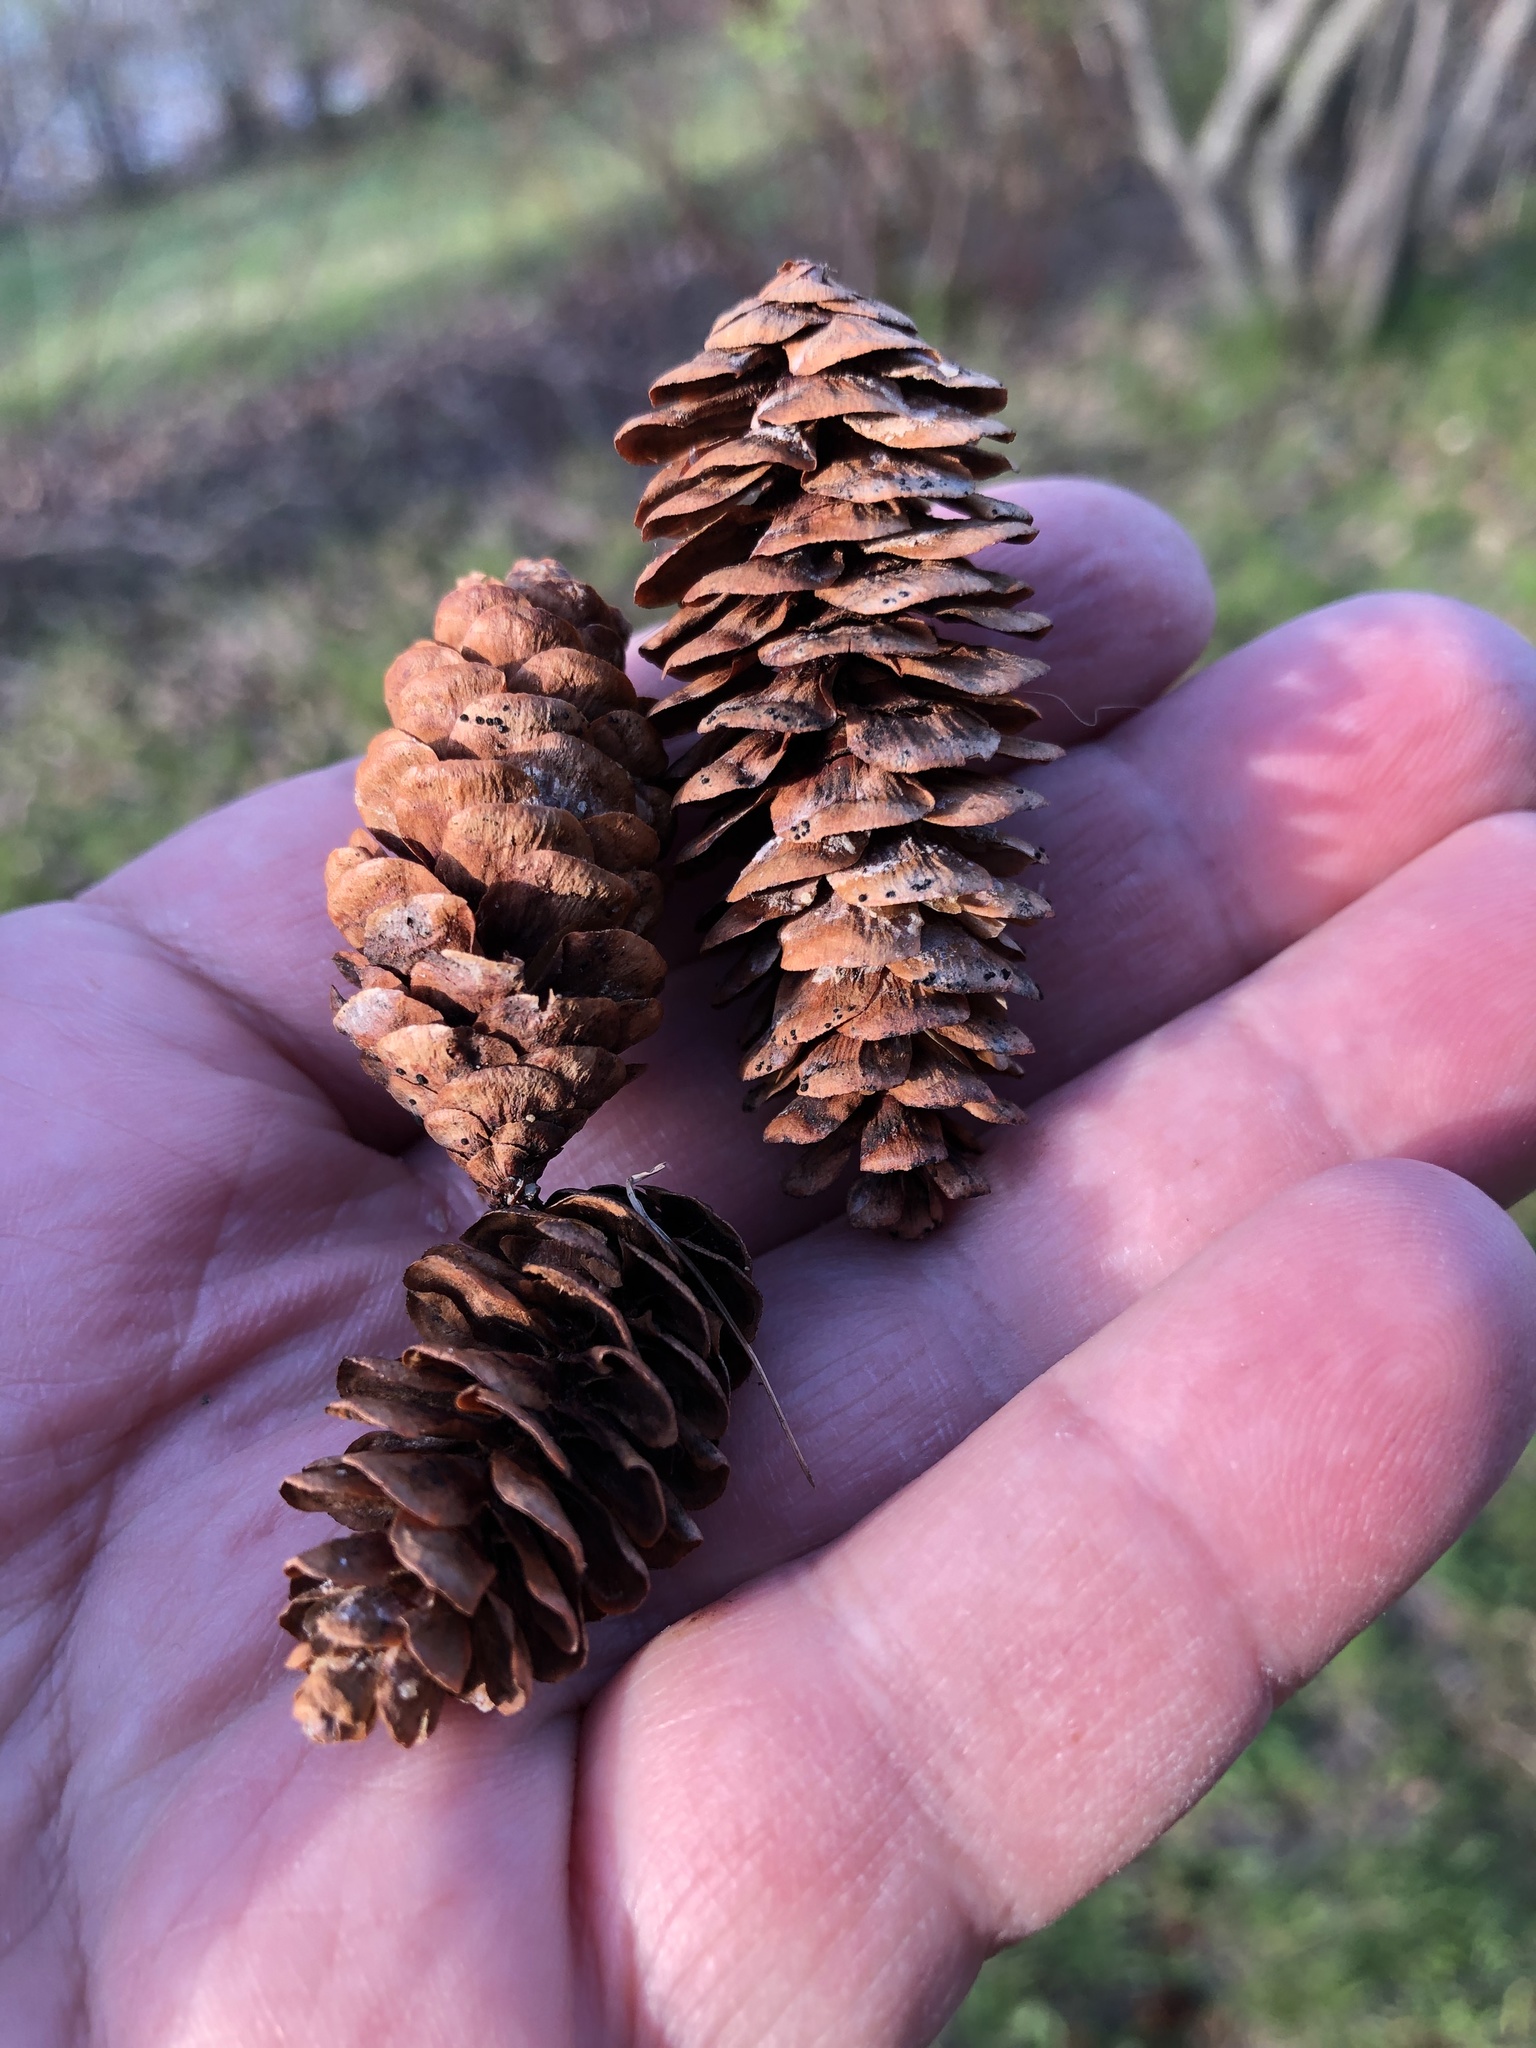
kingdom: Plantae
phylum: Tracheophyta
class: Pinopsida
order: Pinales
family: Pinaceae
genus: Picea
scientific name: Picea glauca
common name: White spruce
